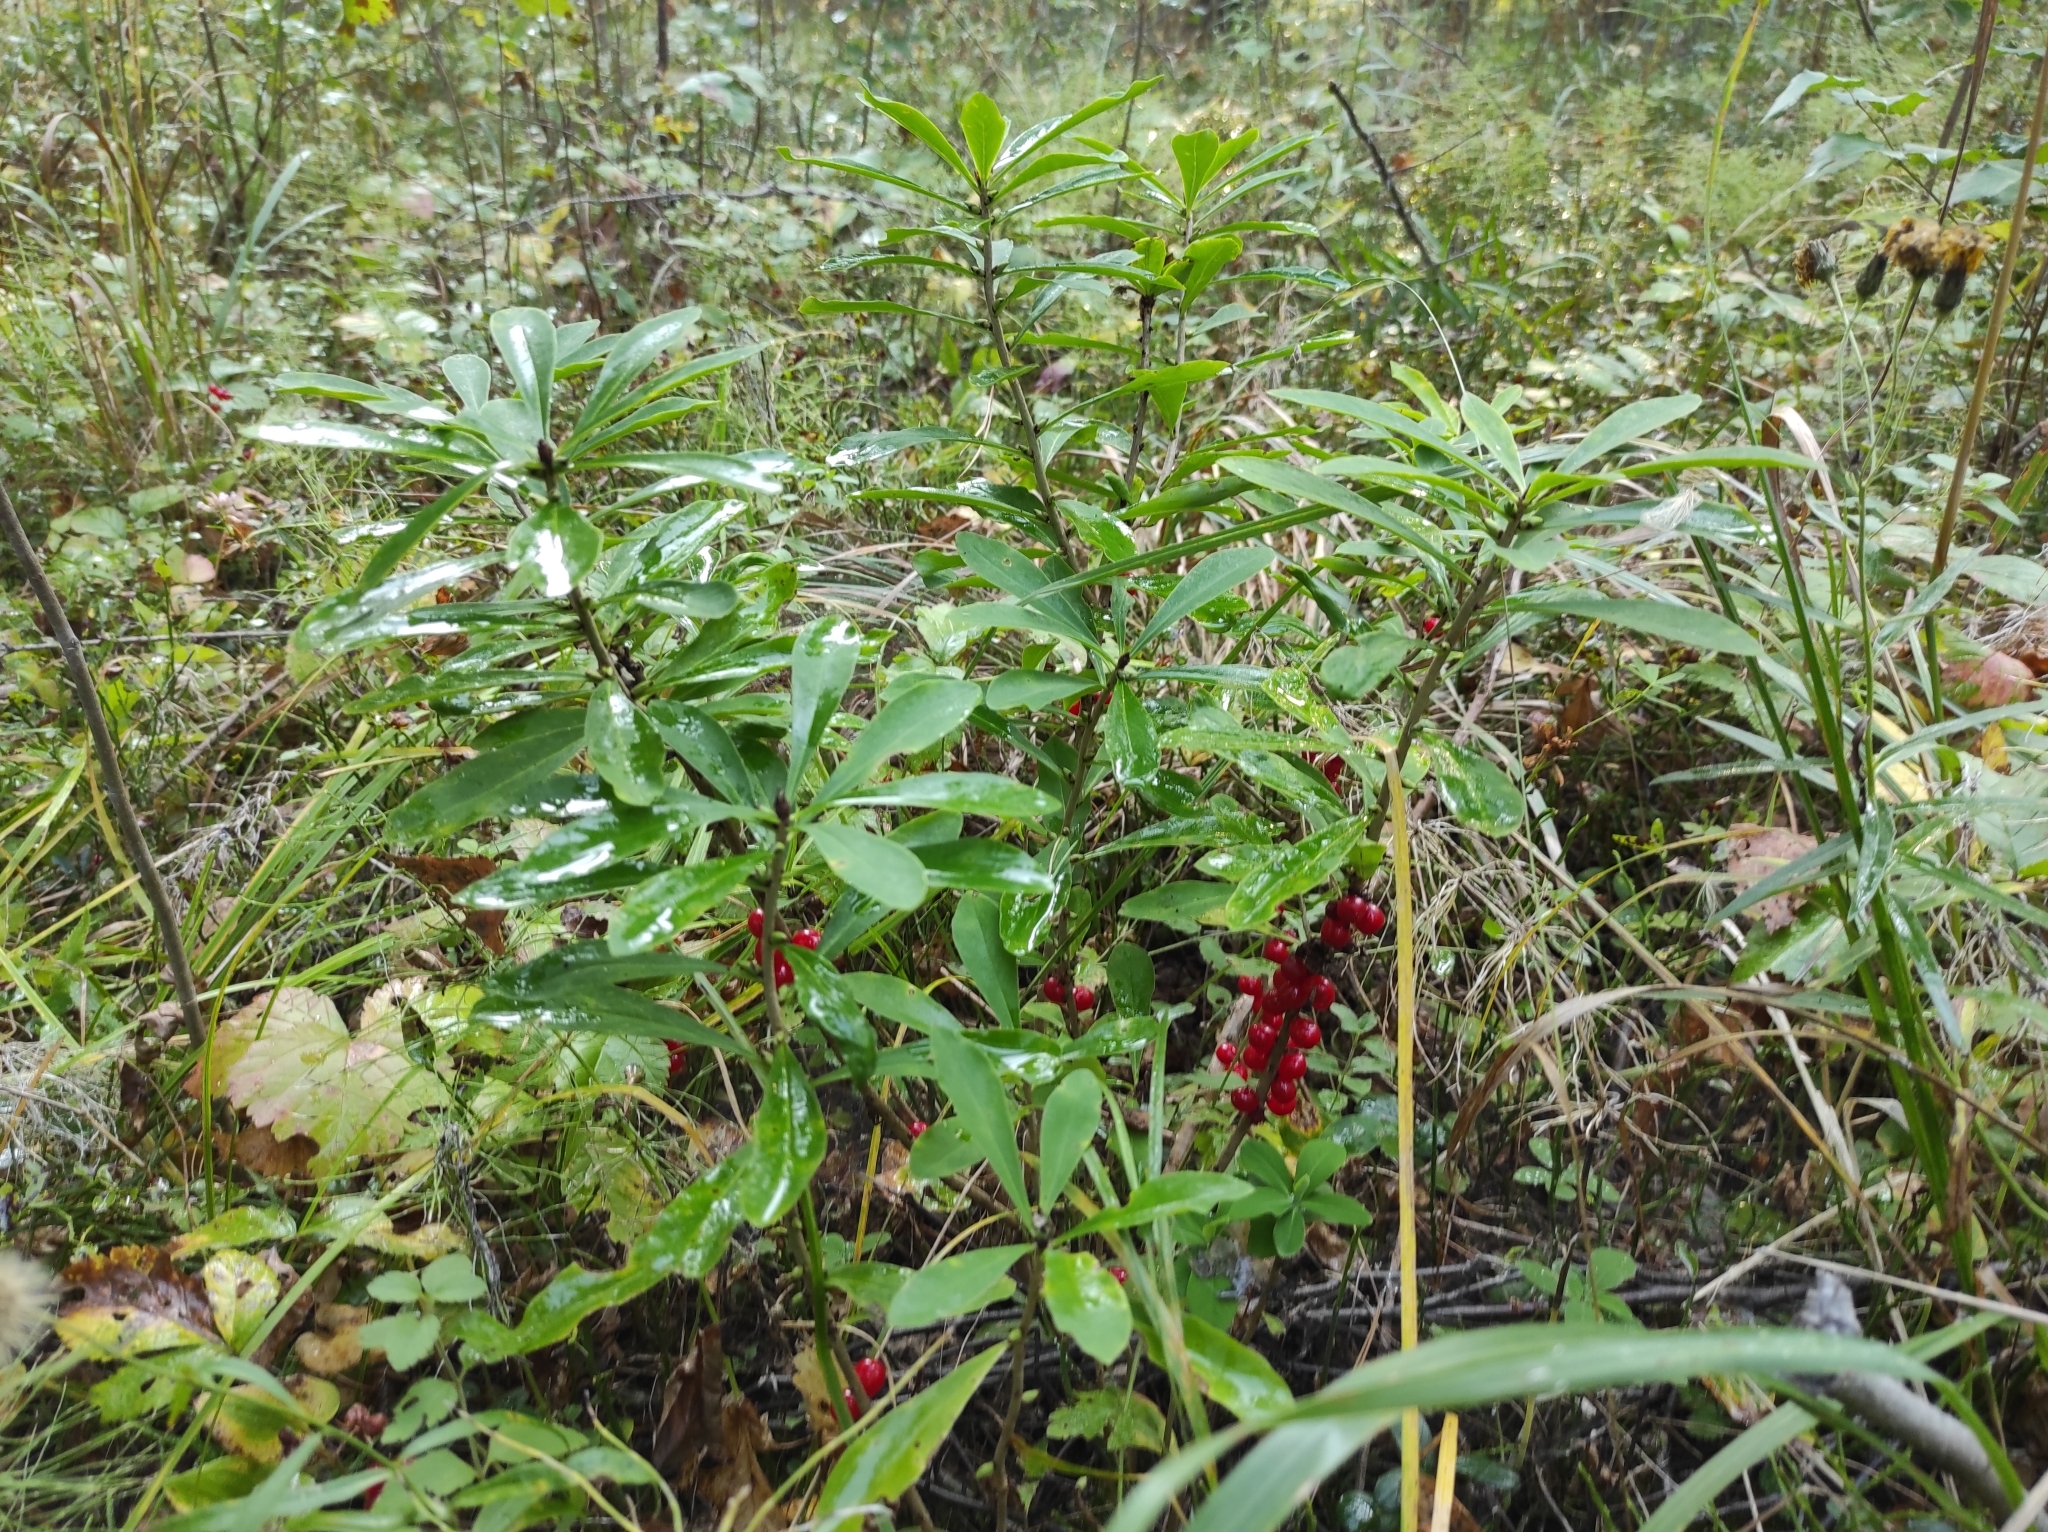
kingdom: Plantae
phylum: Tracheophyta
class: Magnoliopsida
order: Malvales
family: Thymelaeaceae
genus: Daphne
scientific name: Daphne mezereum
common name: Mezereon
